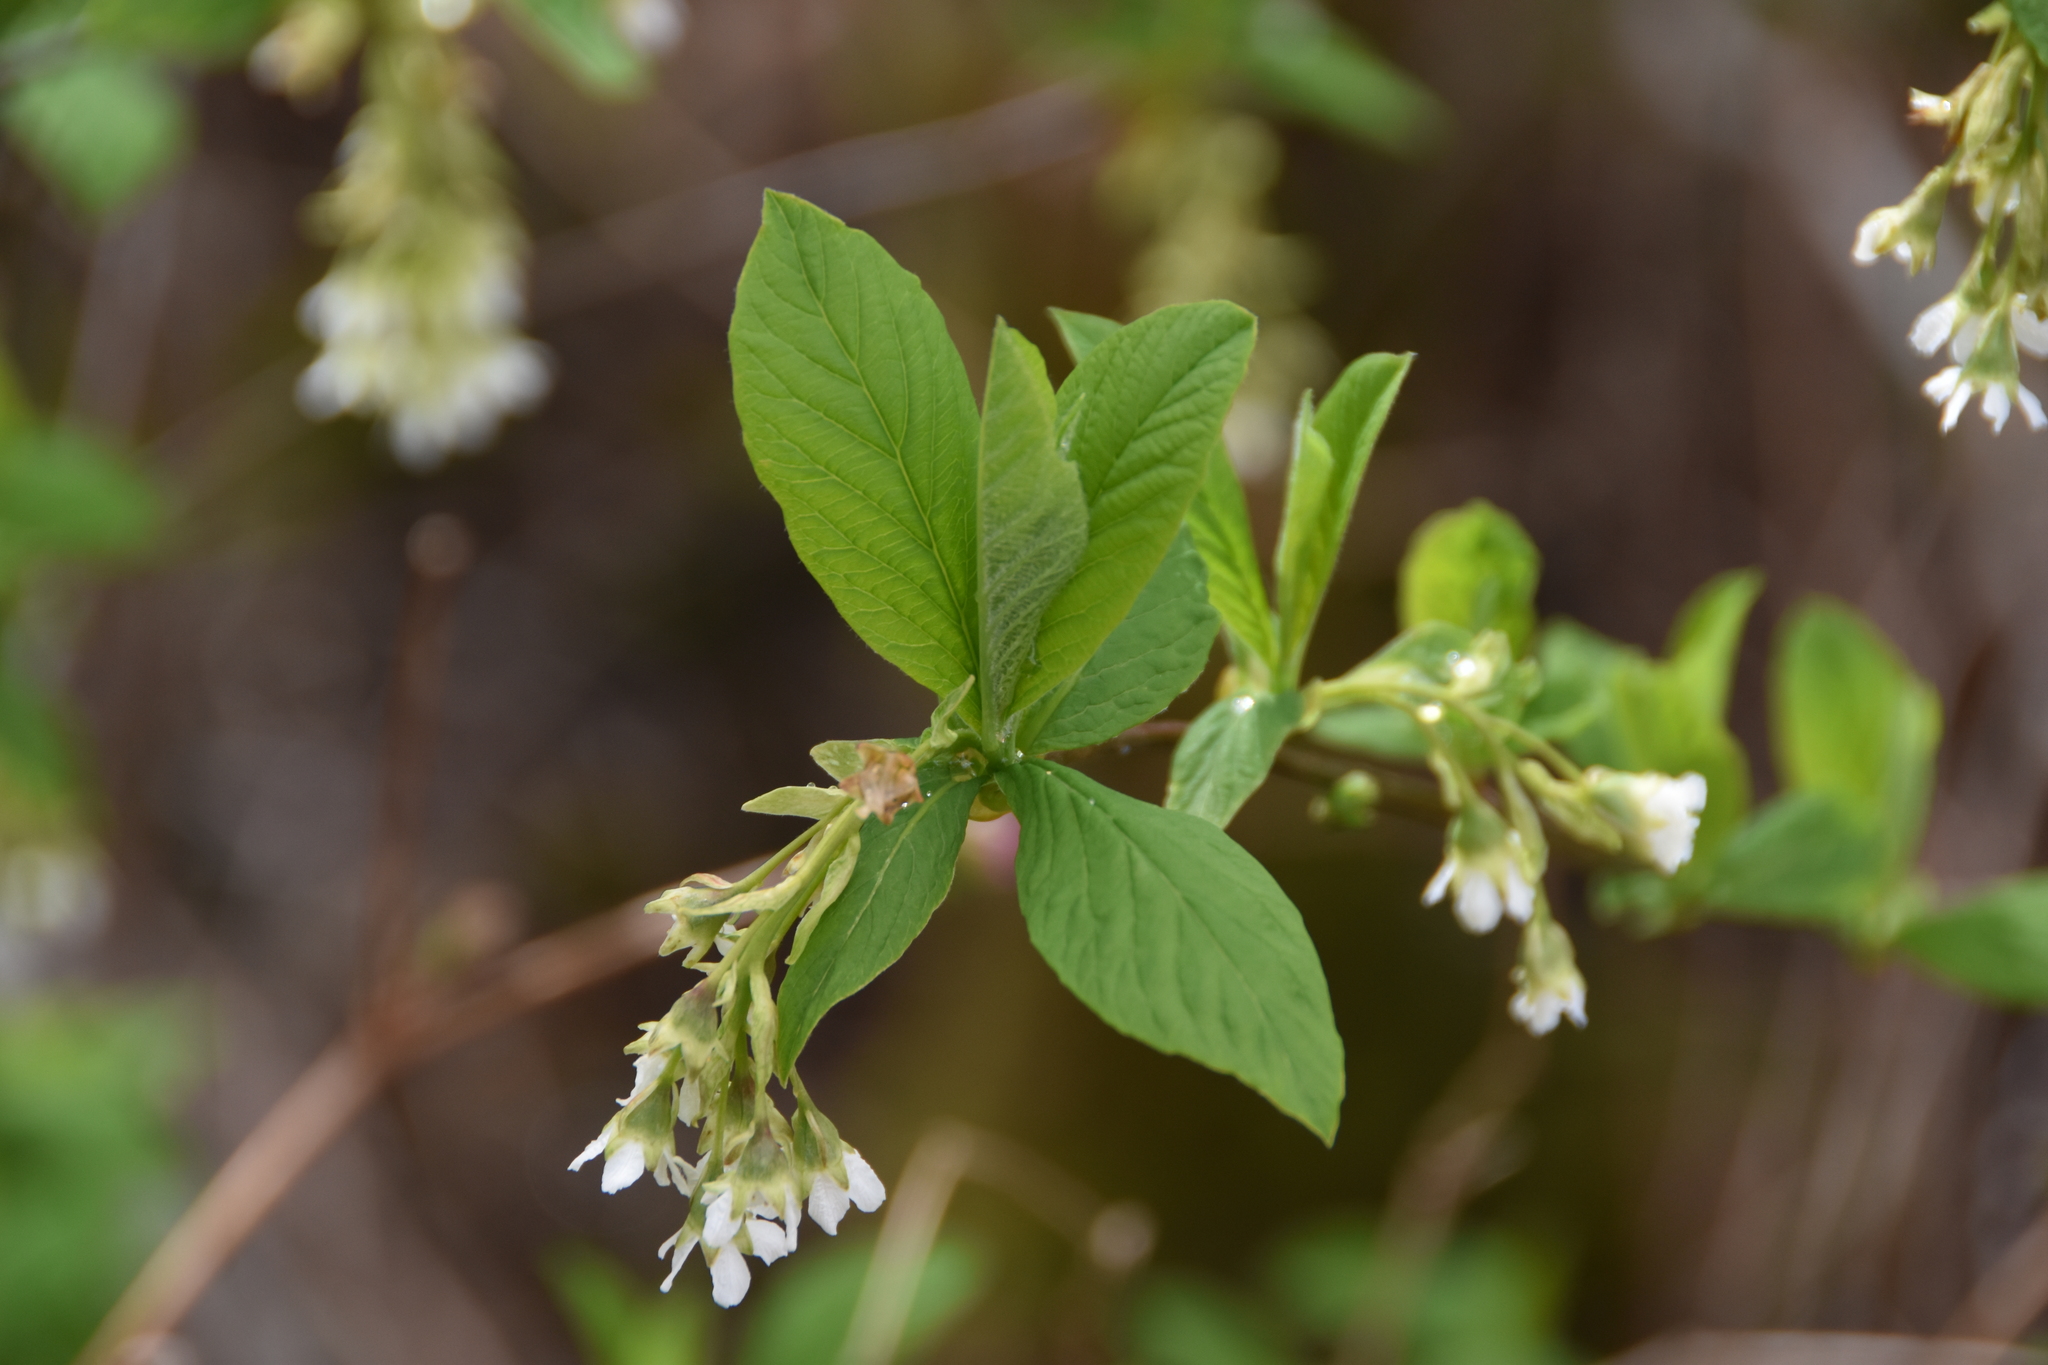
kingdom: Plantae
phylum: Tracheophyta
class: Magnoliopsida
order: Rosales
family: Rosaceae
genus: Oemleria
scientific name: Oemleria cerasiformis
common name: Osoberry
